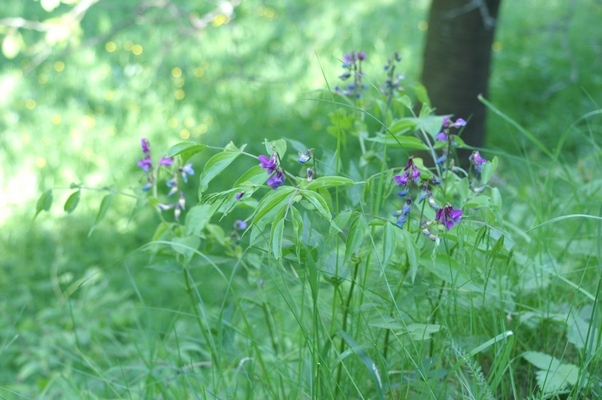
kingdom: Plantae
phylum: Tracheophyta
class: Magnoliopsida
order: Fabales
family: Fabaceae
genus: Lathyrus
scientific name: Lathyrus vernus
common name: Spring pea
